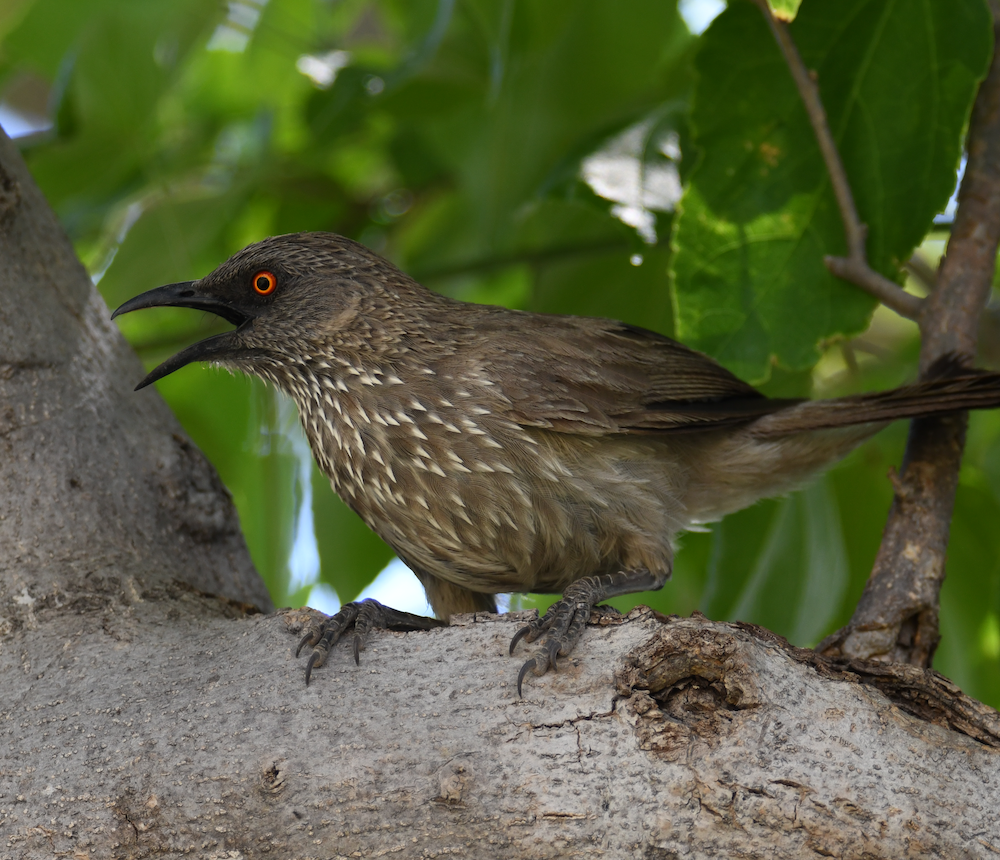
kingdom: Animalia
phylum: Chordata
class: Aves
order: Passeriformes
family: Leiothrichidae
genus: Turdoides
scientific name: Turdoides jardineii
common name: Arrow-marked babbler
